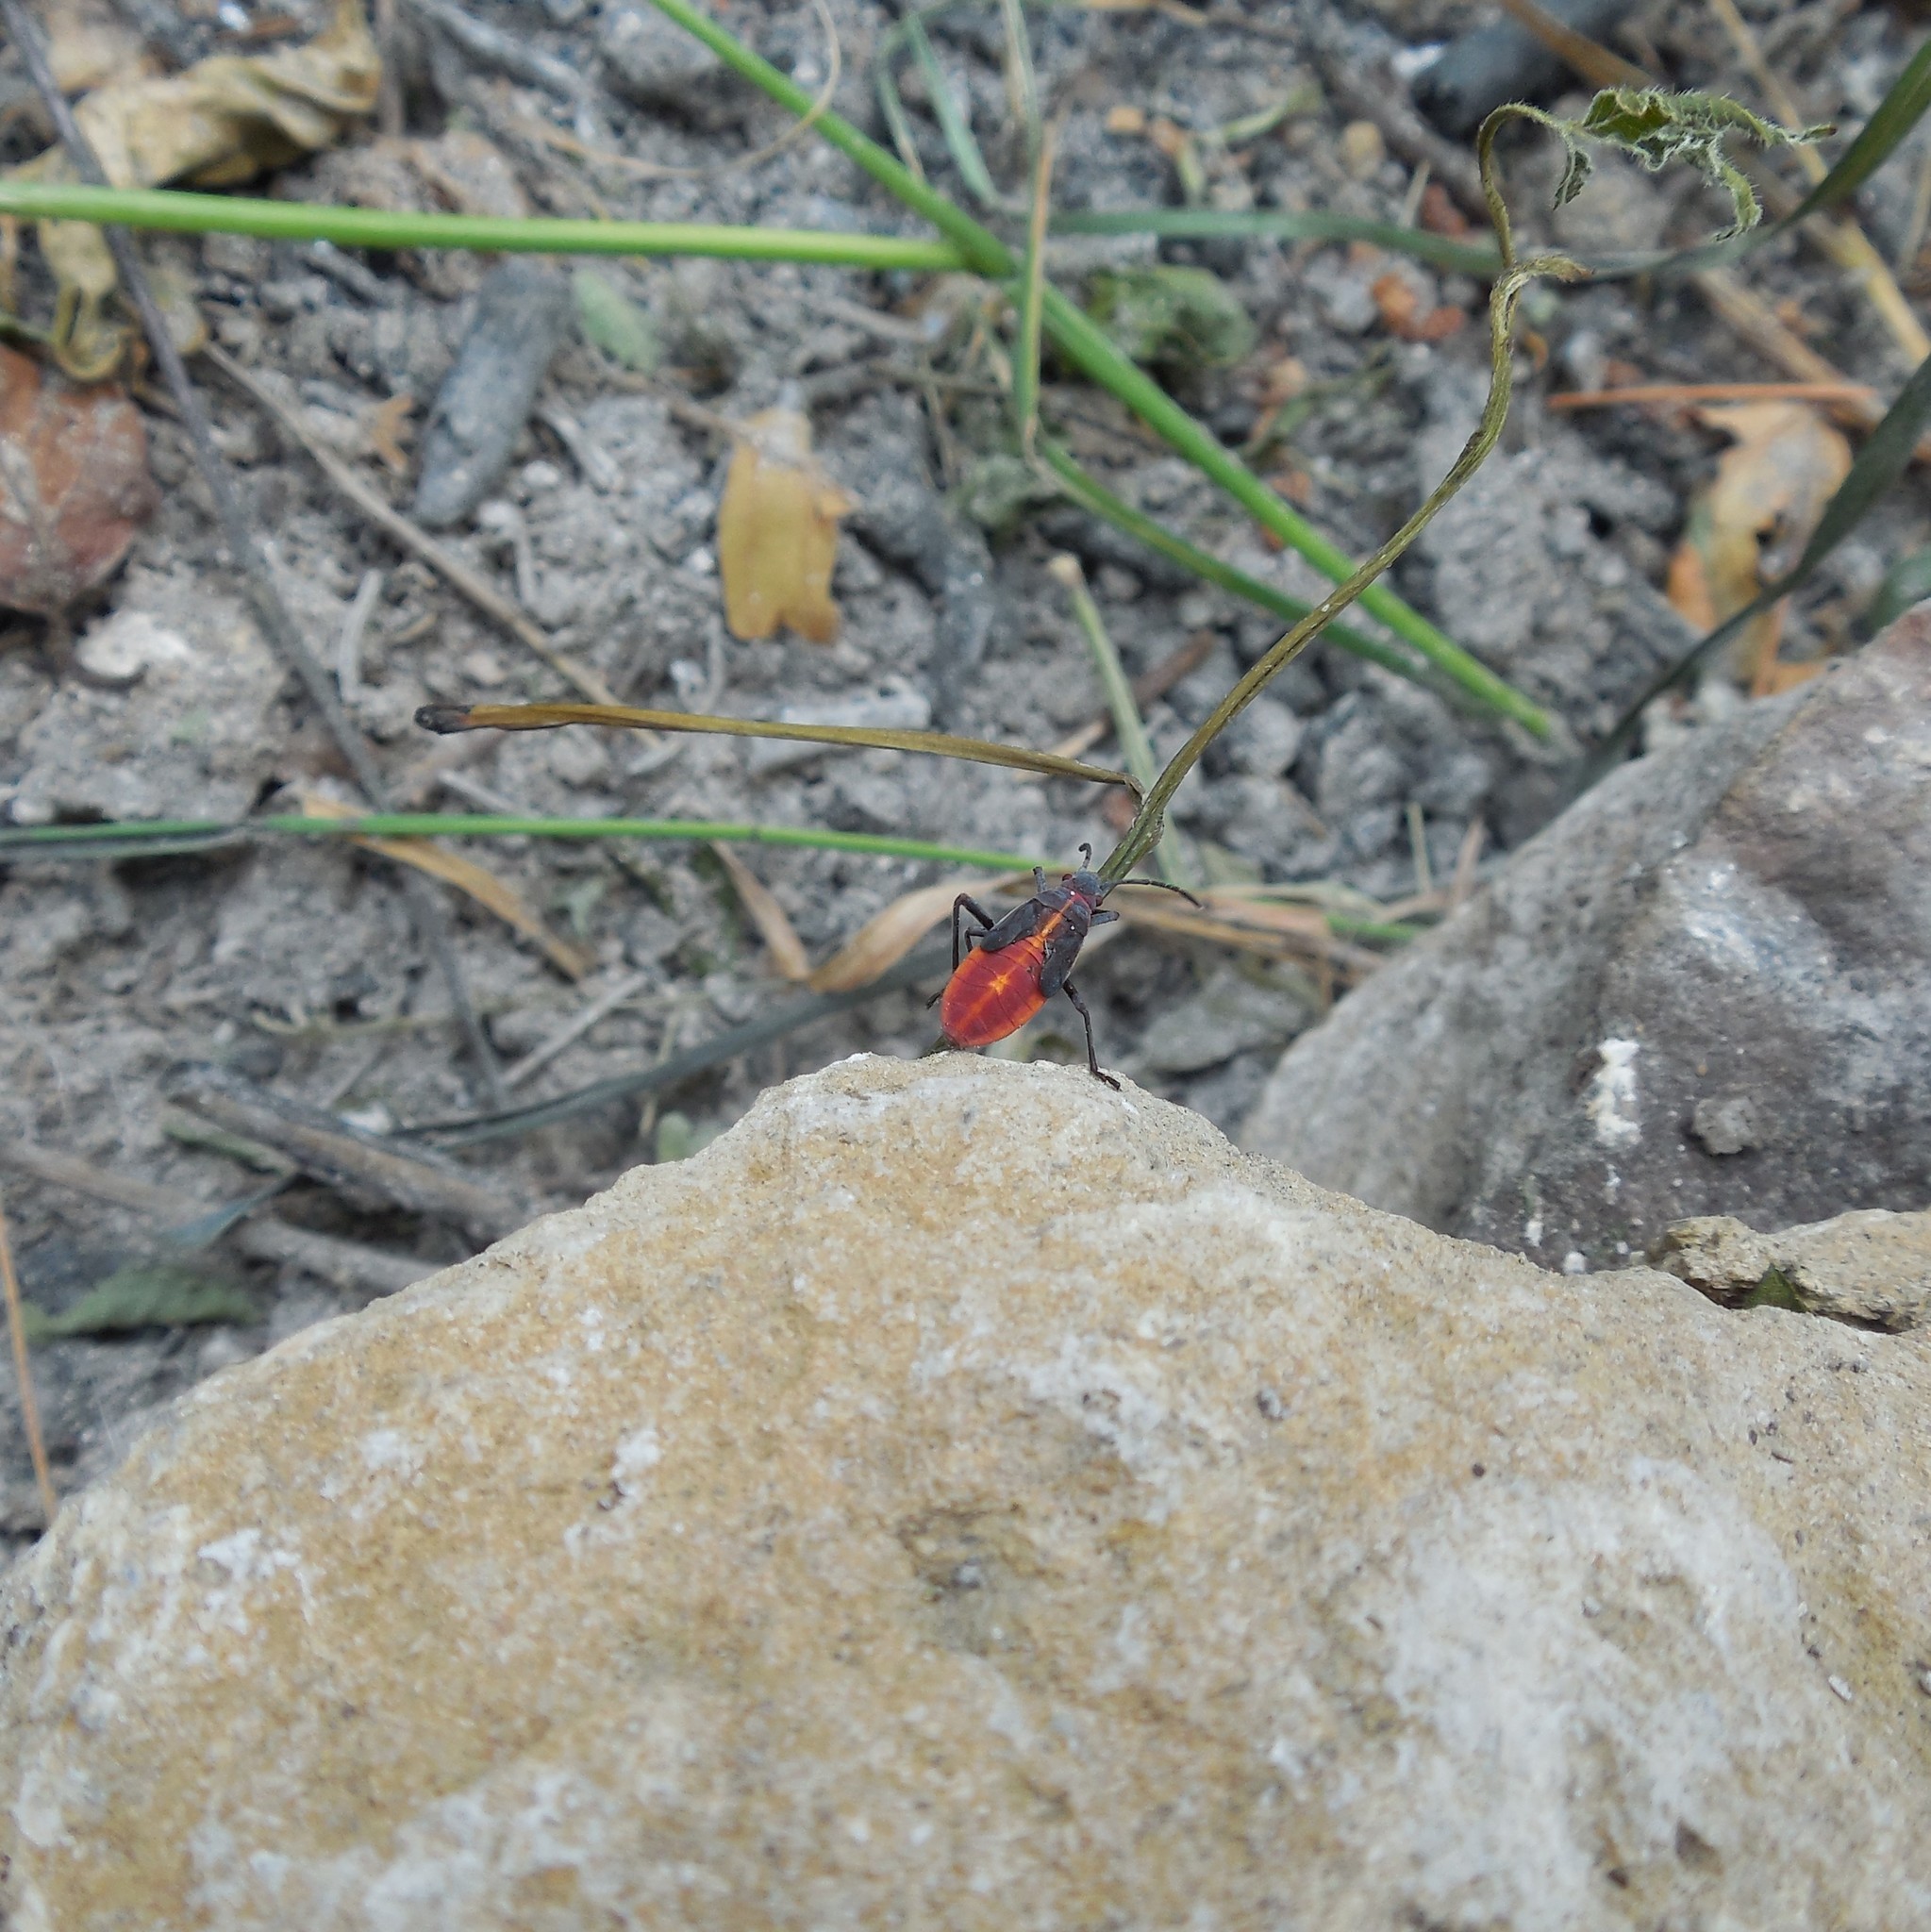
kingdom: Animalia
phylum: Arthropoda
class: Insecta
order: Hemiptera
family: Rhopalidae
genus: Boisea
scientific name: Boisea trivittata
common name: Boxelder bug
